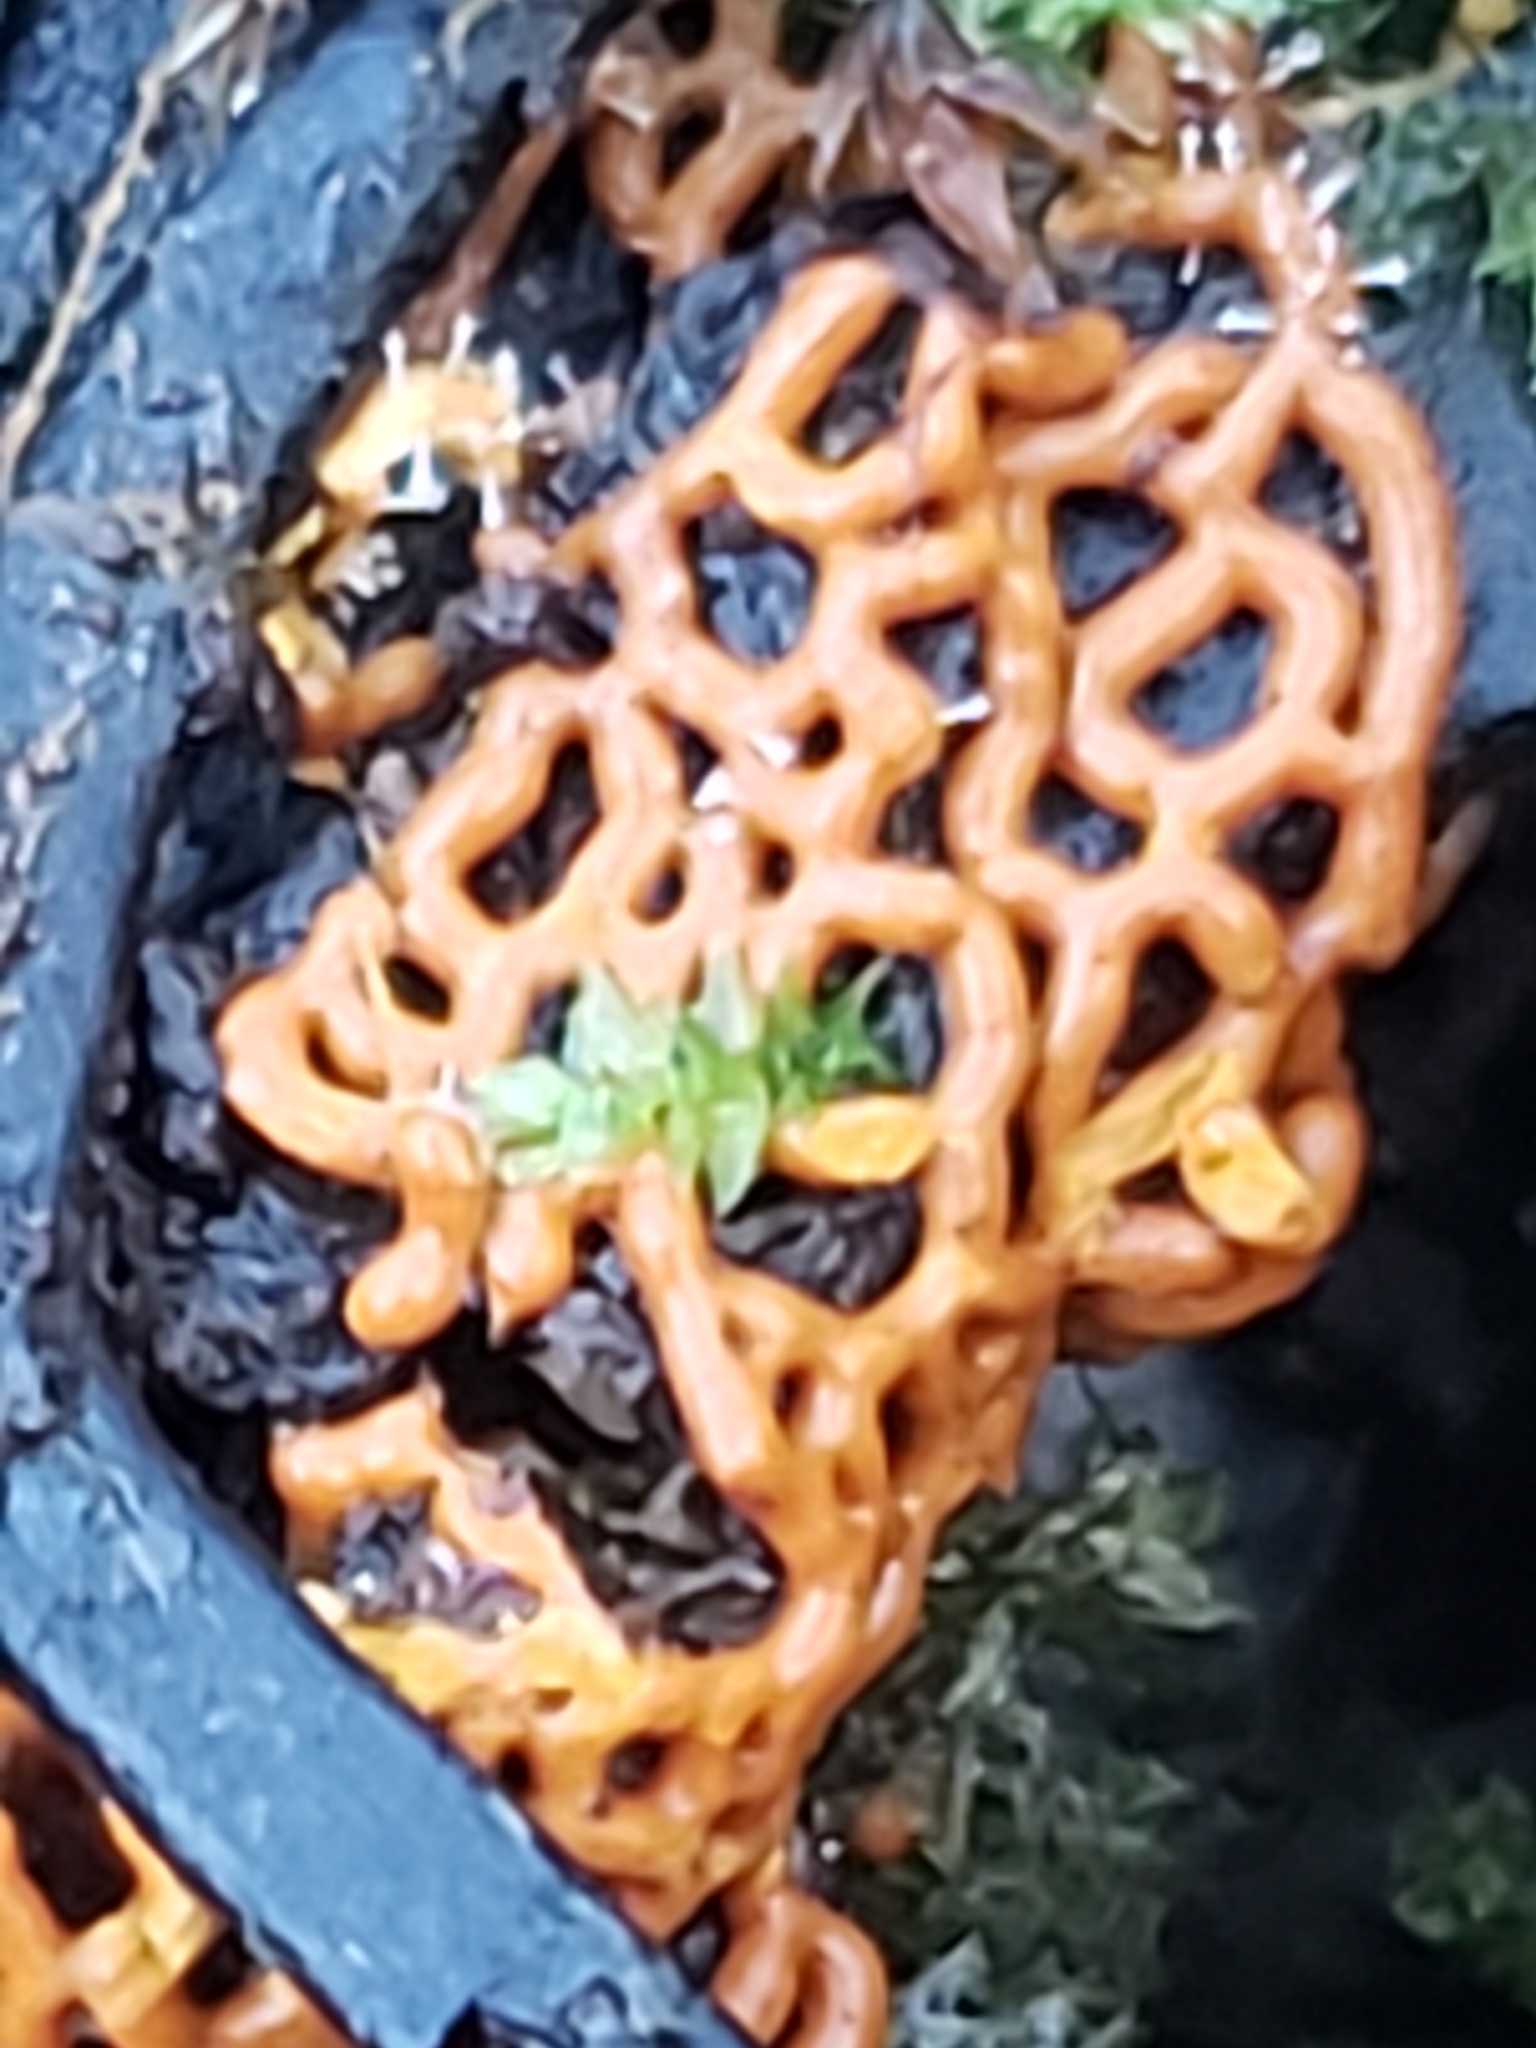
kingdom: Protozoa
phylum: Mycetozoa
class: Myxomycetes
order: Trichiales
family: Arcyriaceae
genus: Hemitrichia
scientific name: Hemitrichia serpula
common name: Pretzel slime mold
